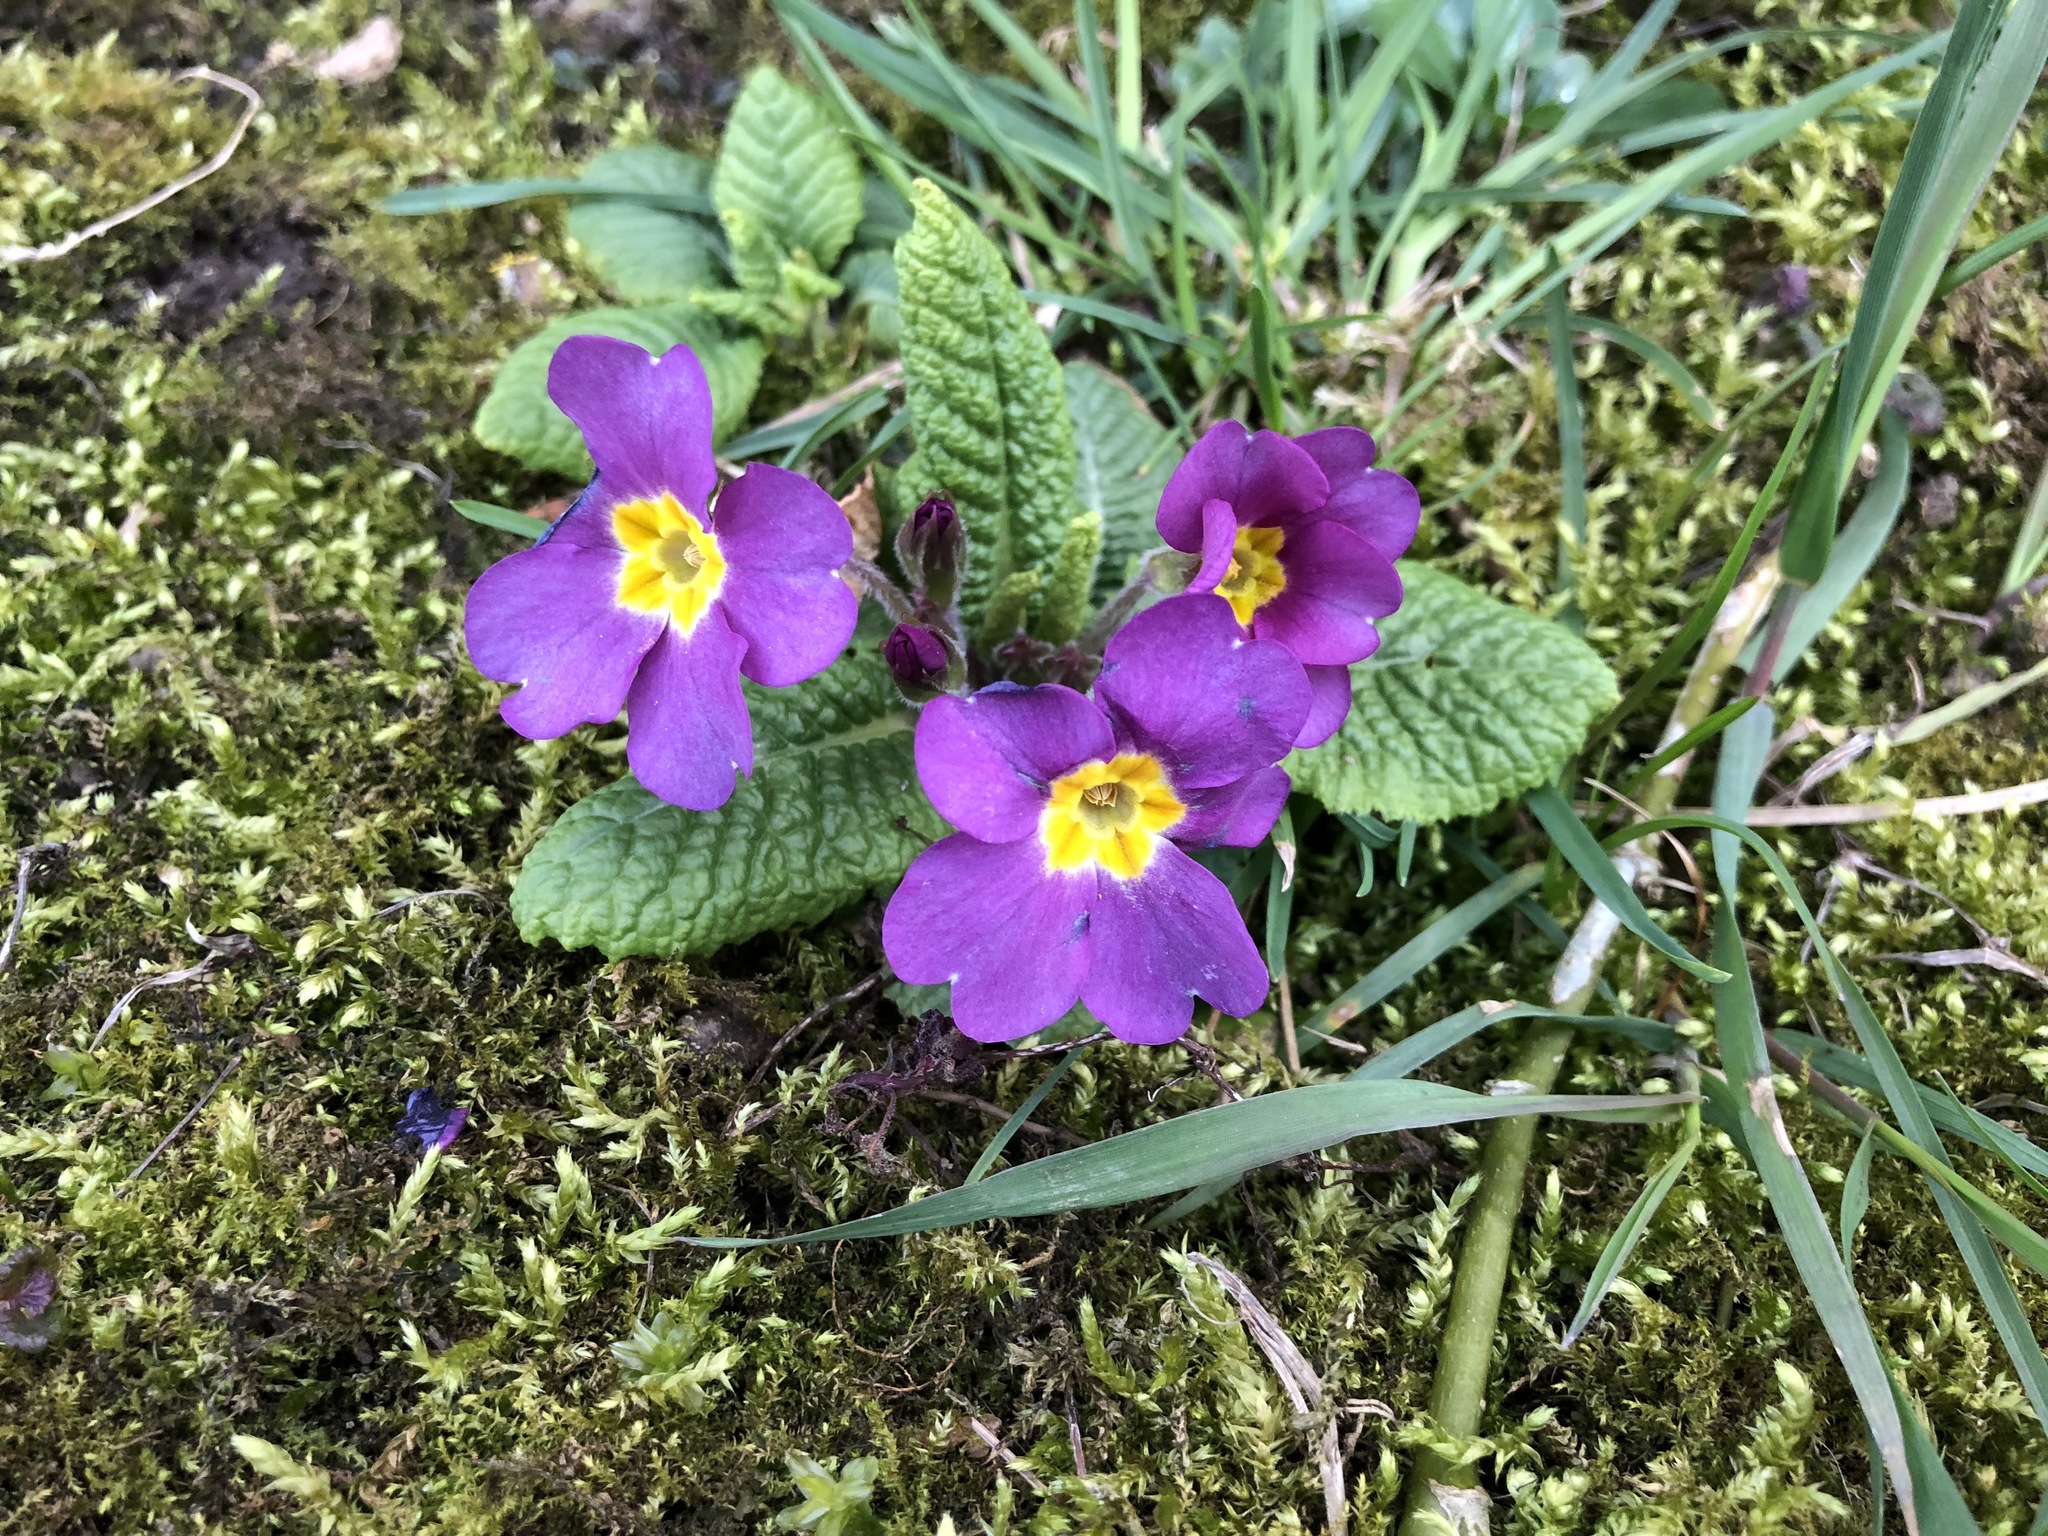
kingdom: Plantae
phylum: Tracheophyta
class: Magnoliopsida
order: Ericales
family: Primulaceae
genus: Primula
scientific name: Primula vulgaris
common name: Primrose
